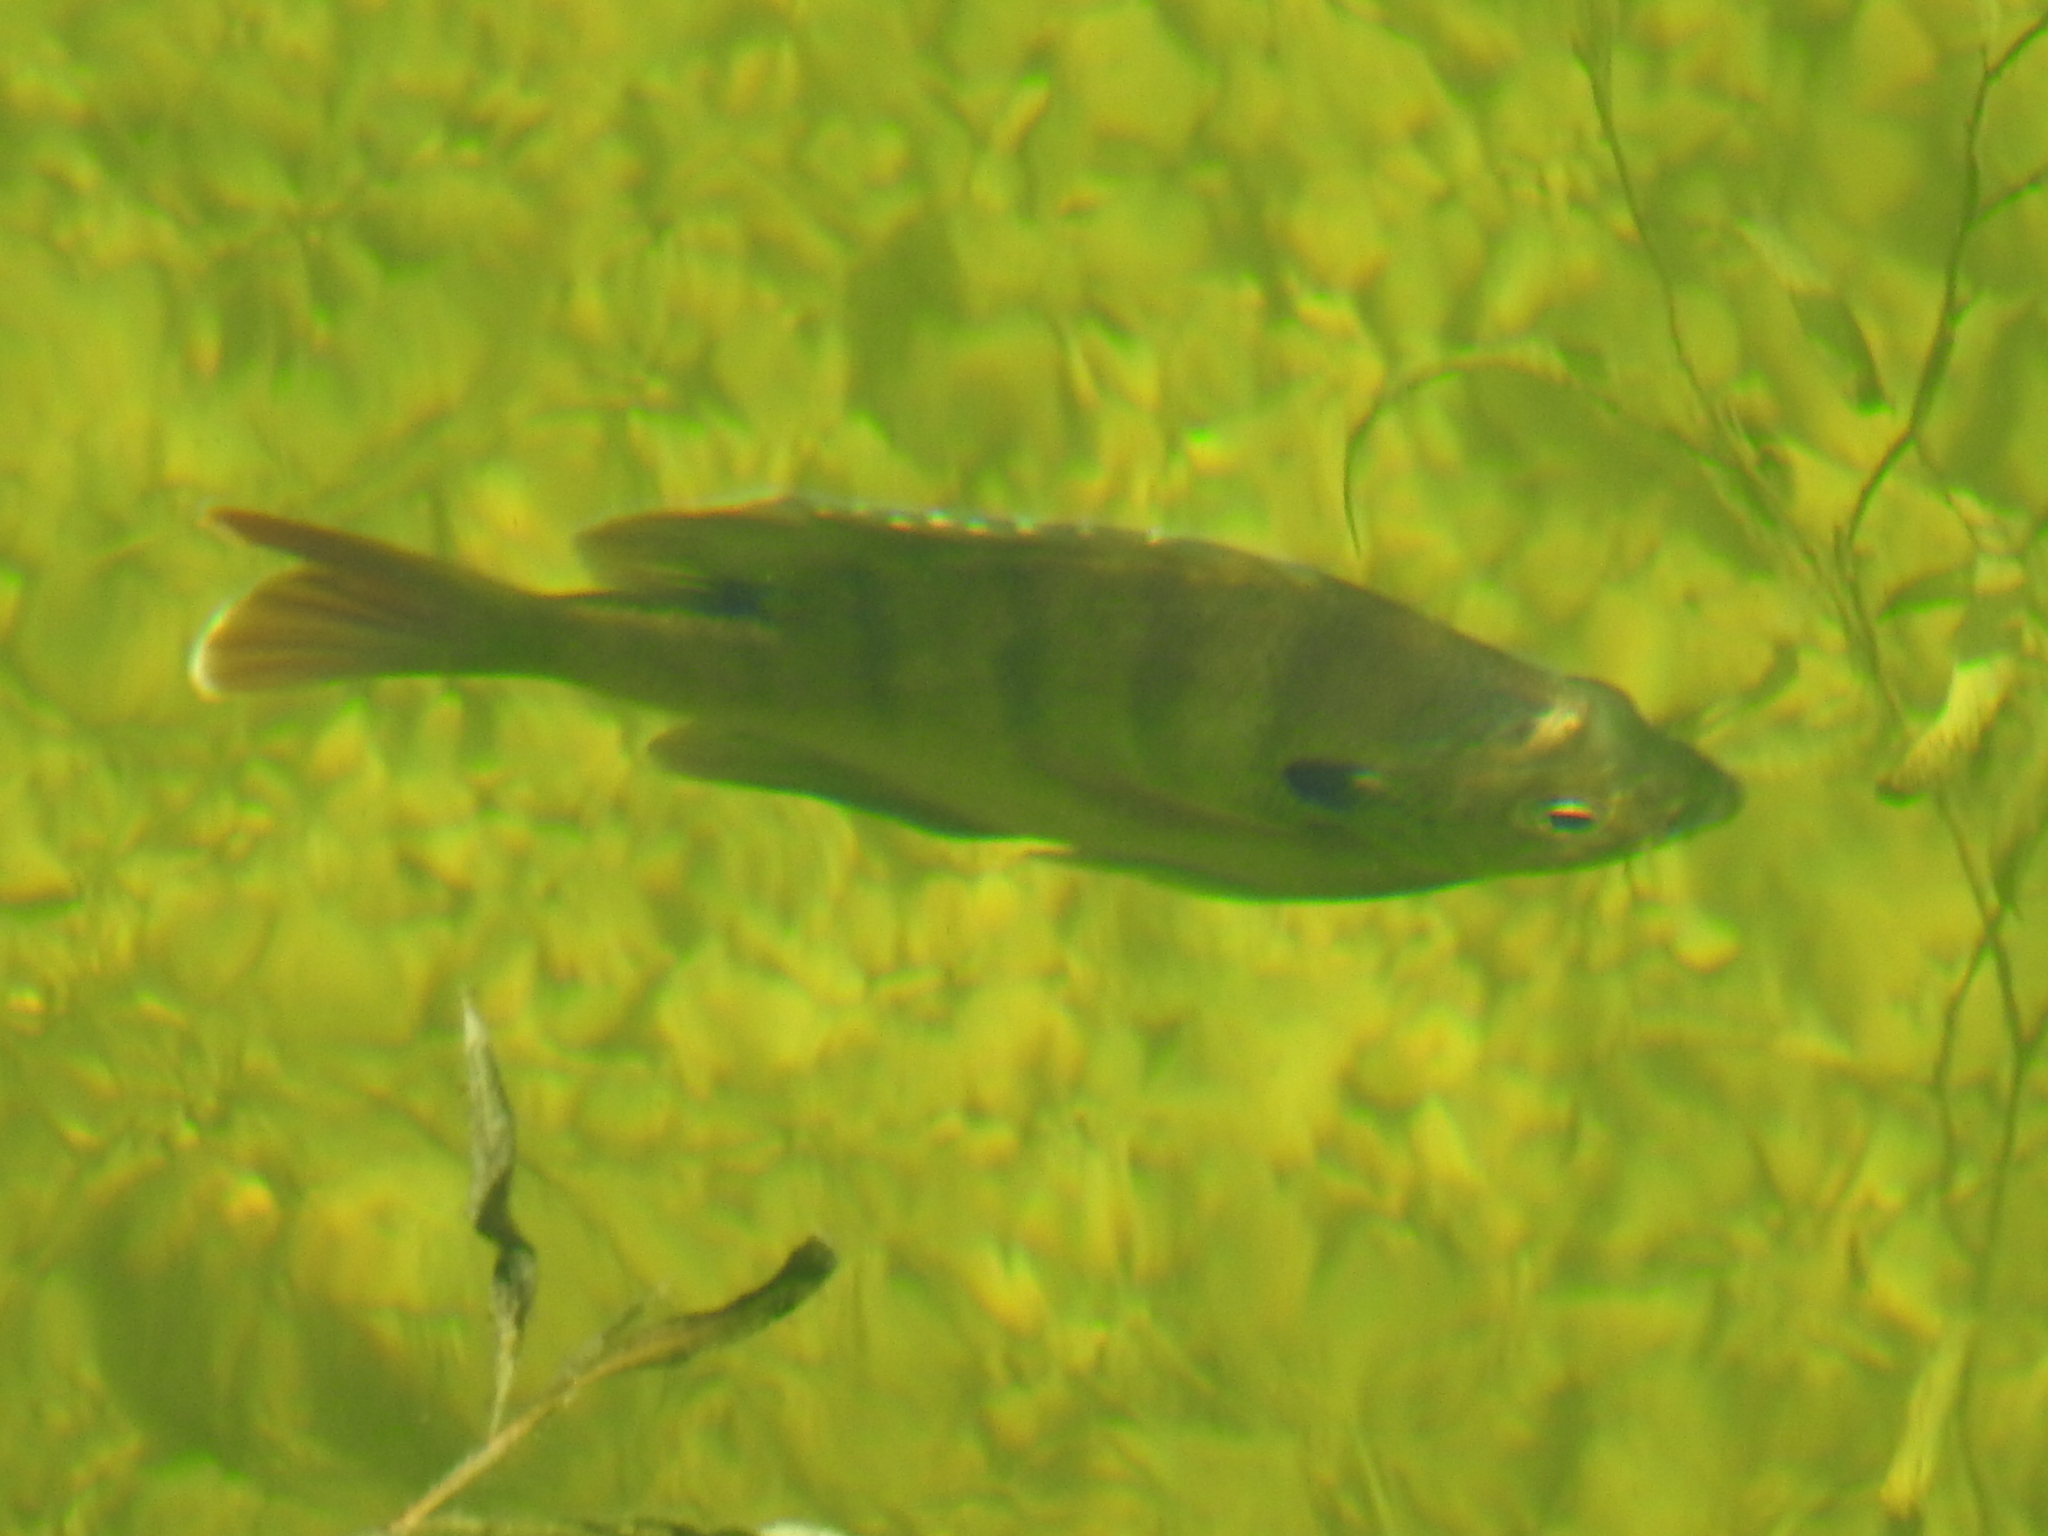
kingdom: Animalia
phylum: Chordata
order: Perciformes
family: Centrarchidae
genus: Lepomis
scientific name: Lepomis macrochirus
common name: Bluegill
